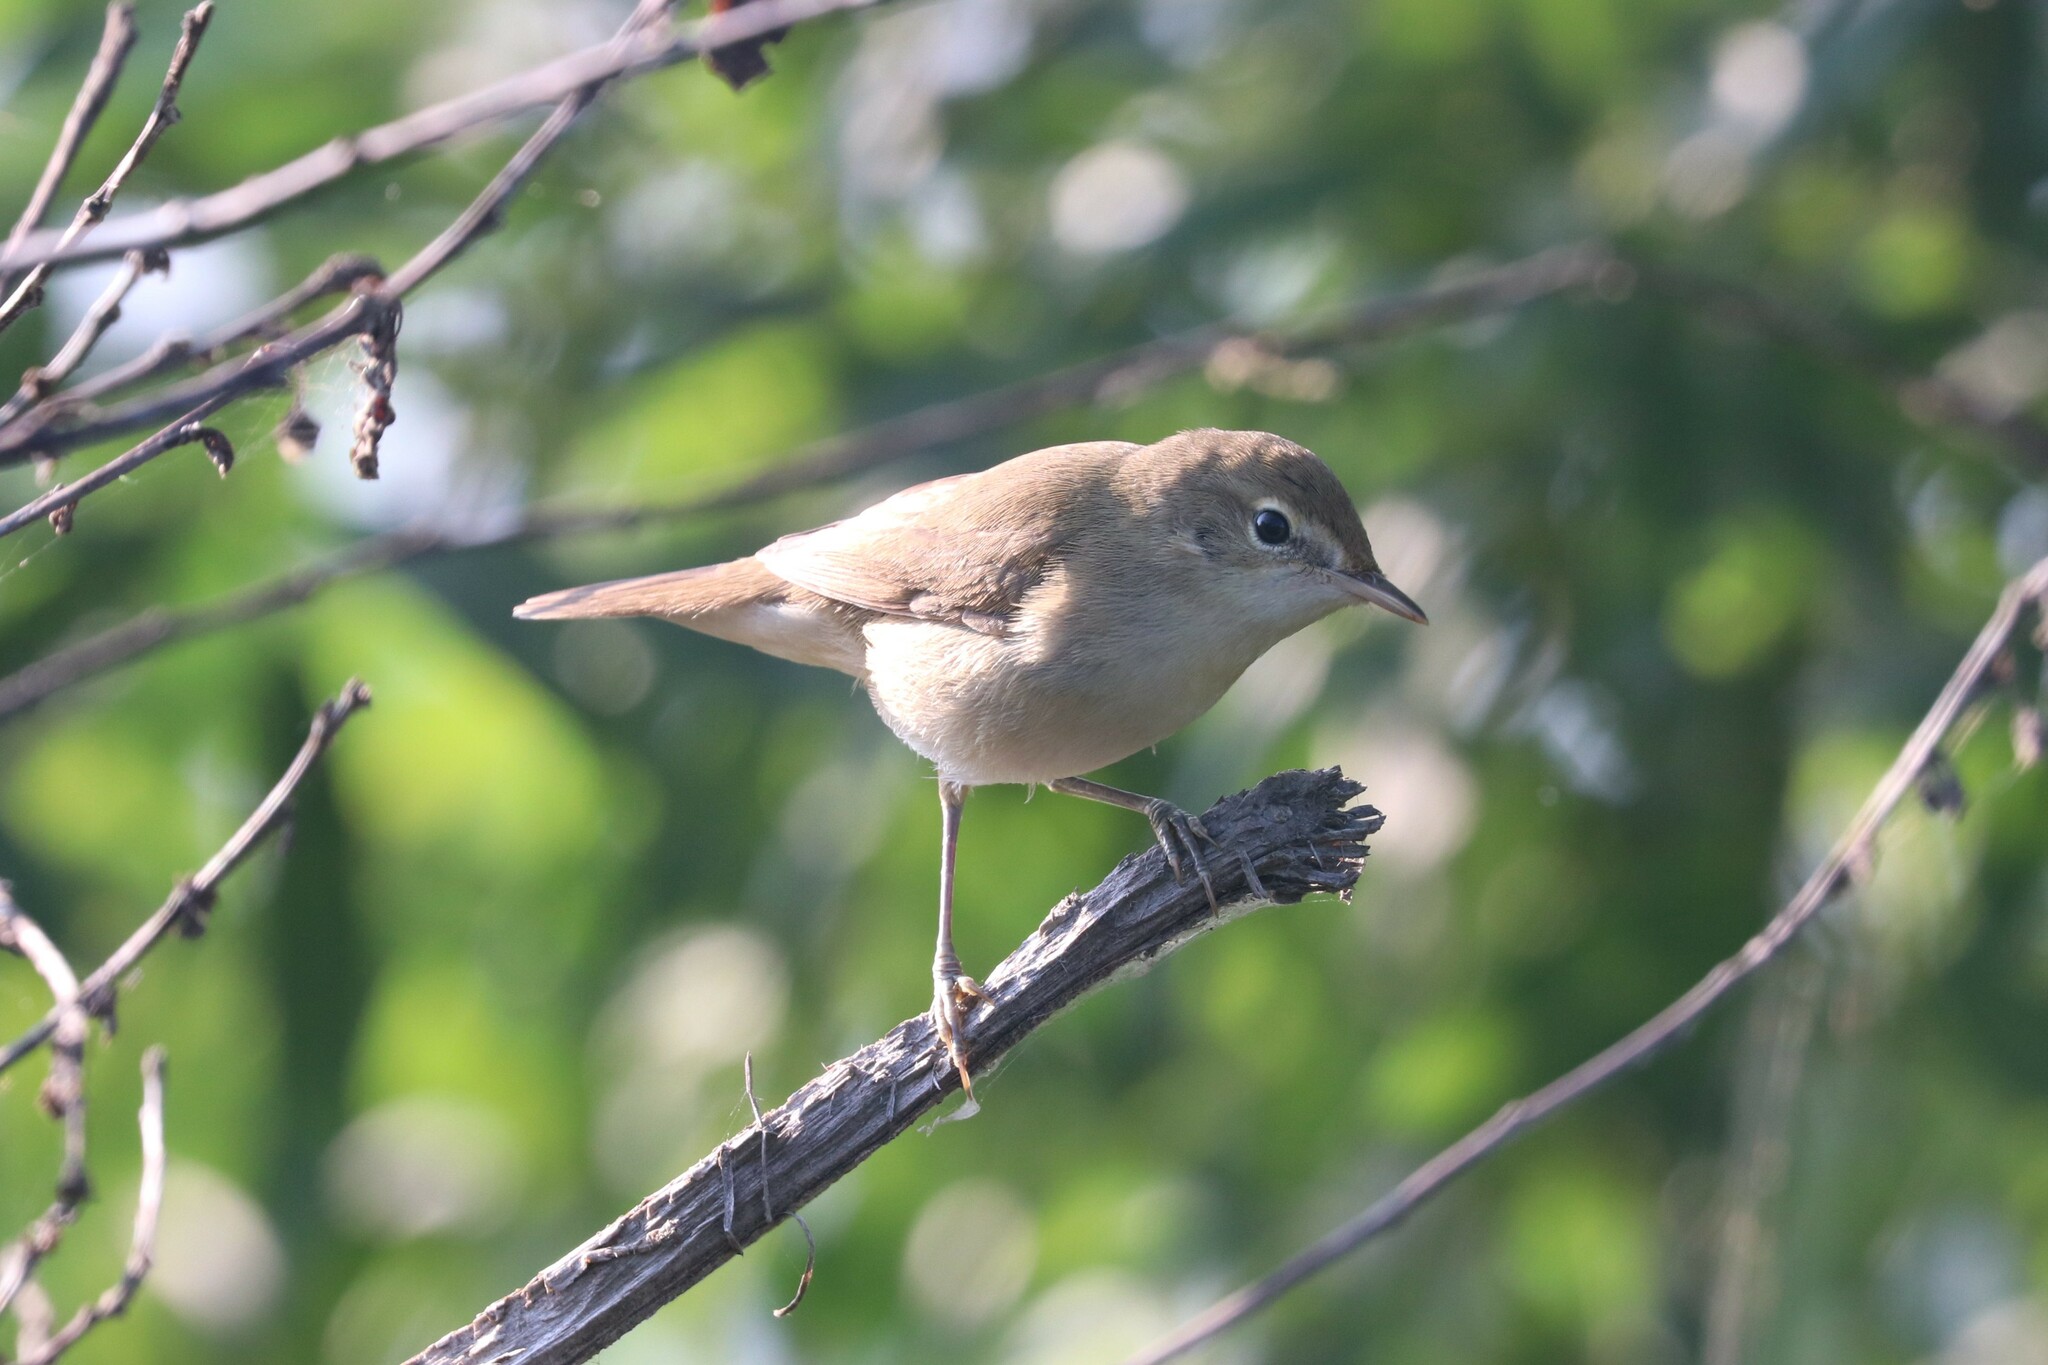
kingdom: Animalia
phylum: Chordata
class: Aves
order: Passeriformes
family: Acrocephalidae
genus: Iduna
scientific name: Iduna caligata
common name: Booted warbler
